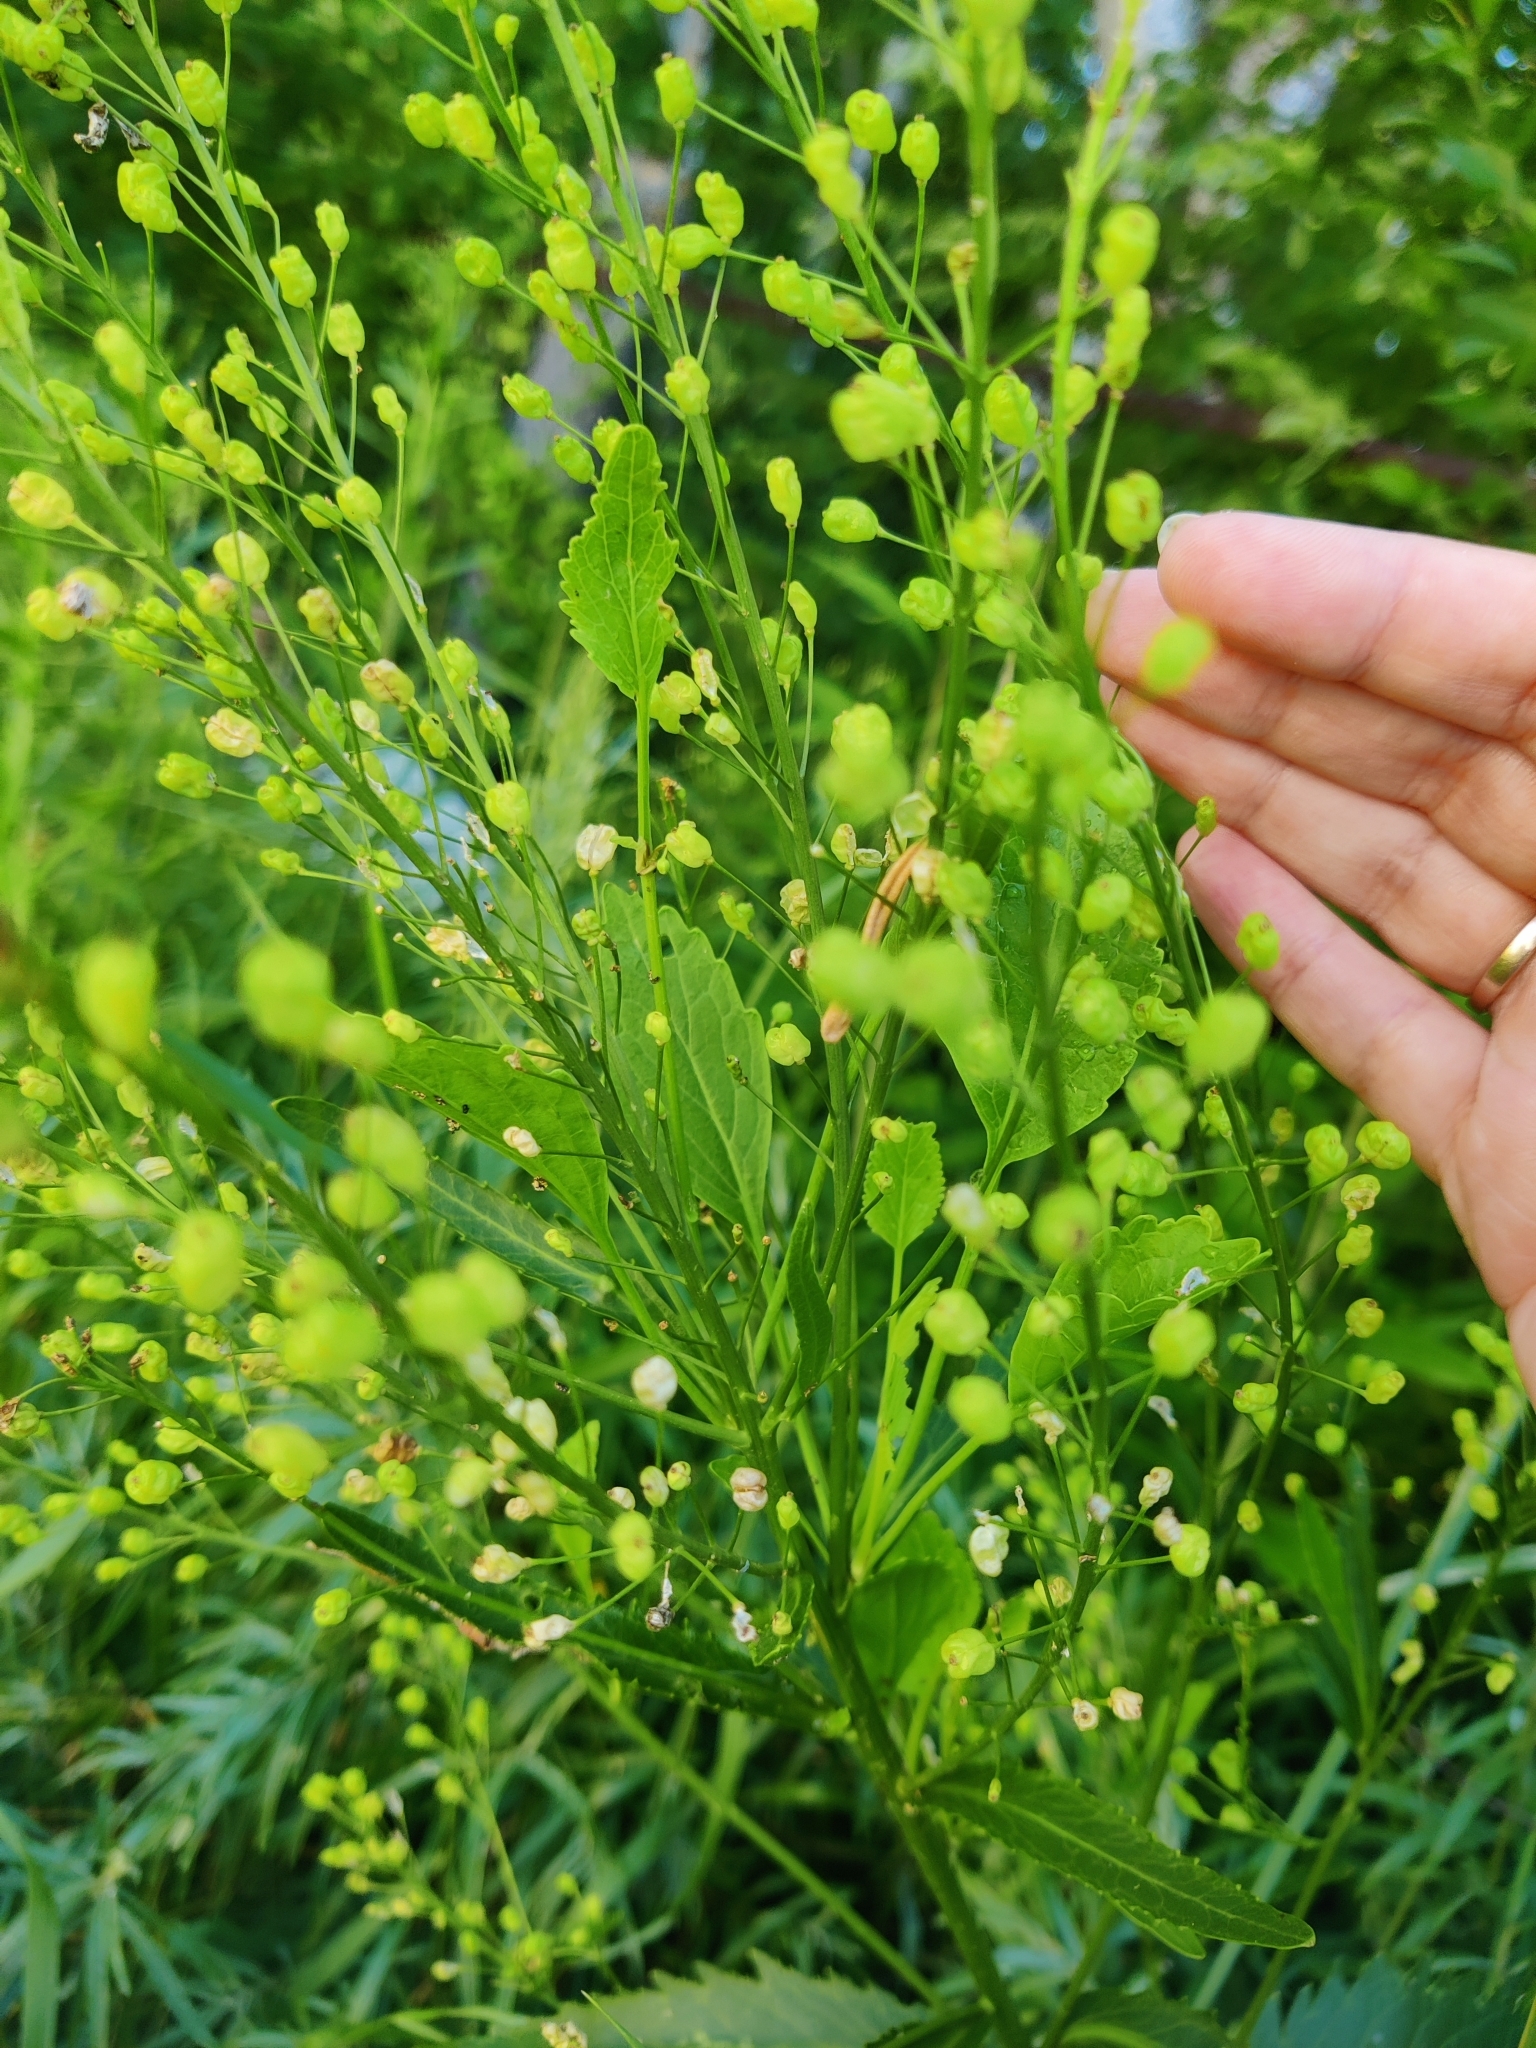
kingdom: Plantae
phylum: Tracheophyta
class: Magnoliopsida
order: Brassicales
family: Brassicaceae
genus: Bunias
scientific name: Bunias orientalis
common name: Warty-cabbage
